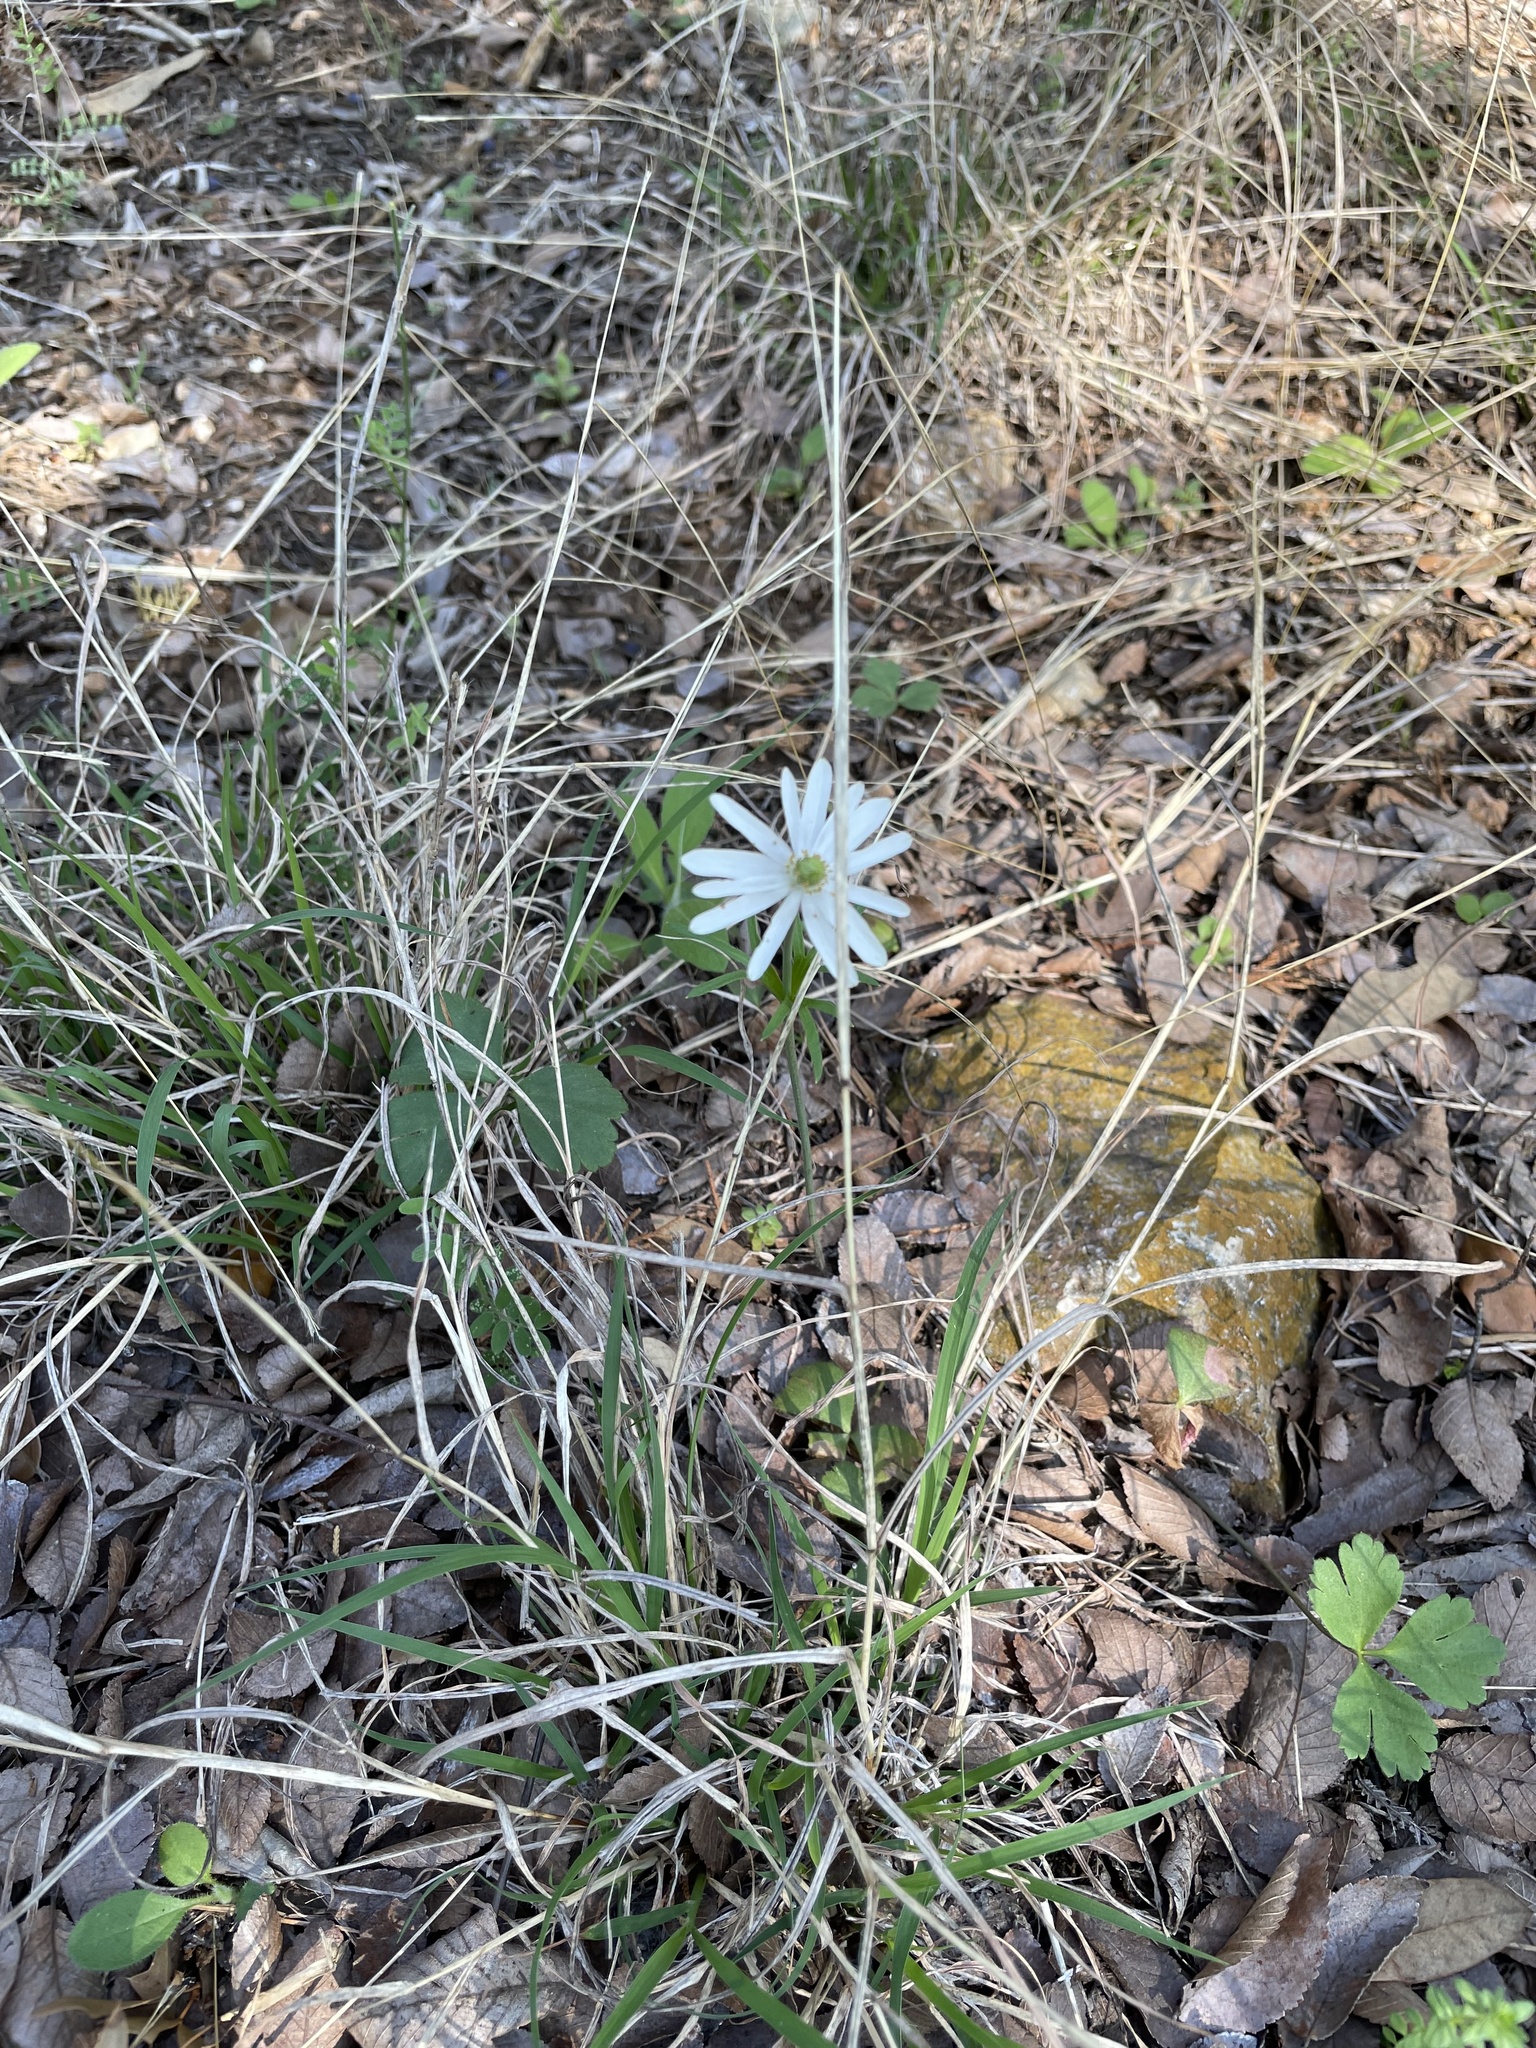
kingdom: Plantae
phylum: Tracheophyta
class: Magnoliopsida
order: Ranunculales
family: Ranunculaceae
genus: Anemone
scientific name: Anemone berlandieri
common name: Ten-petal anemone
